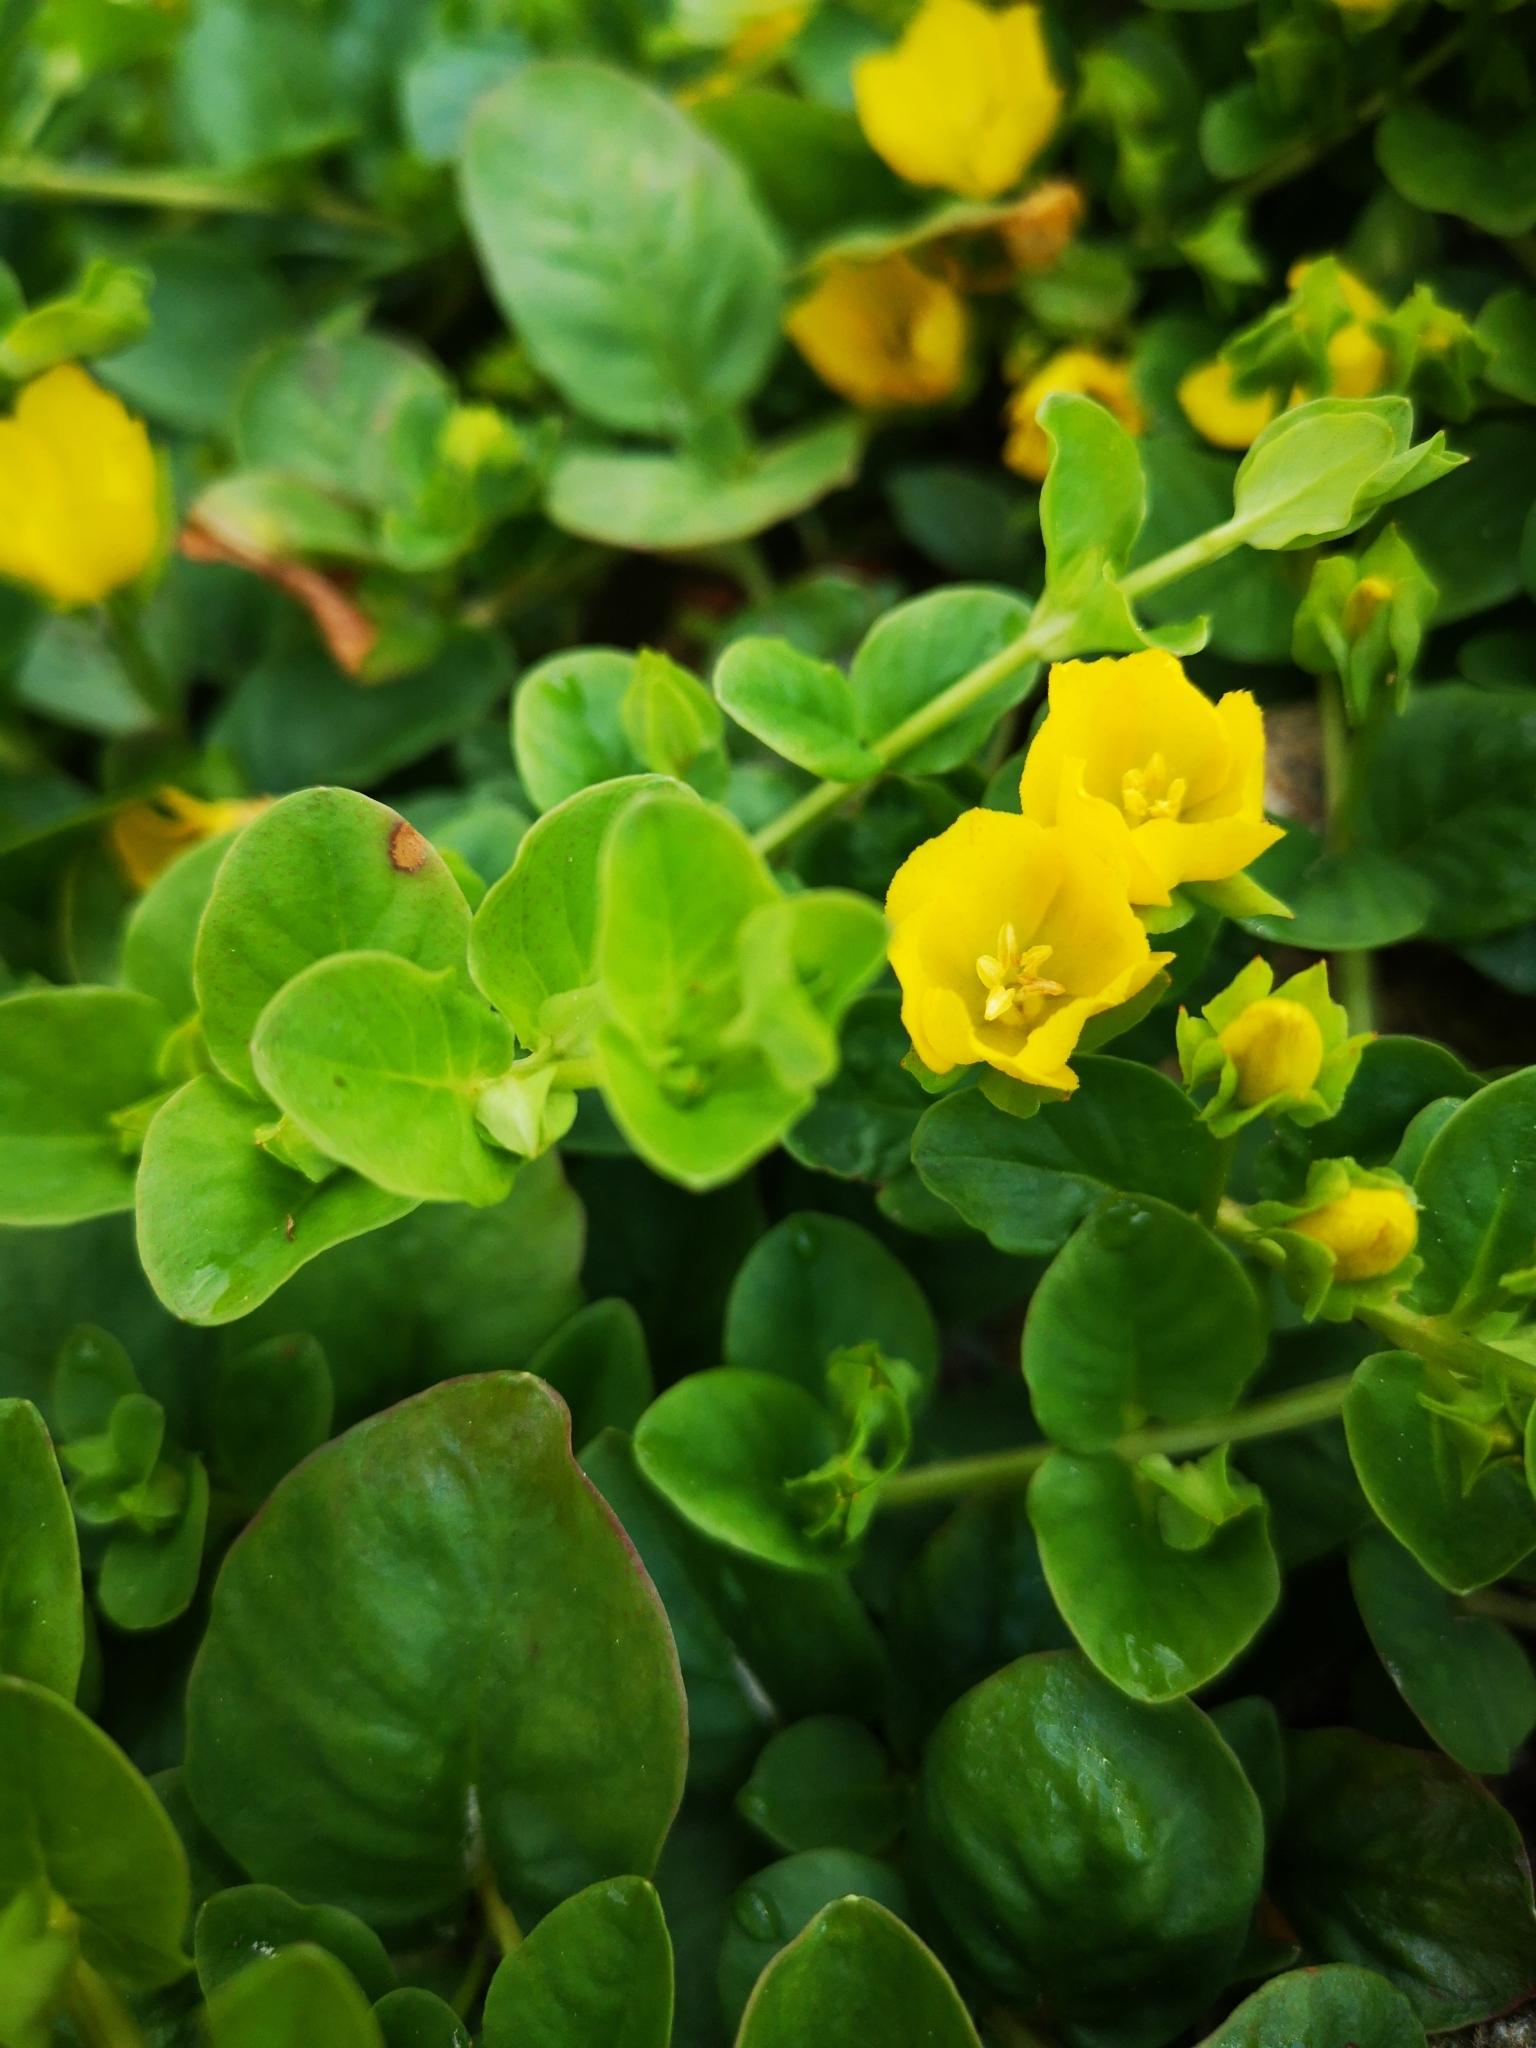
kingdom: Plantae
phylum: Tracheophyta
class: Magnoliopsida
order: Ericales
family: Primulaceae
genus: Lysimachia
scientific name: Lysimachia nummularia
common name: Moneywort
